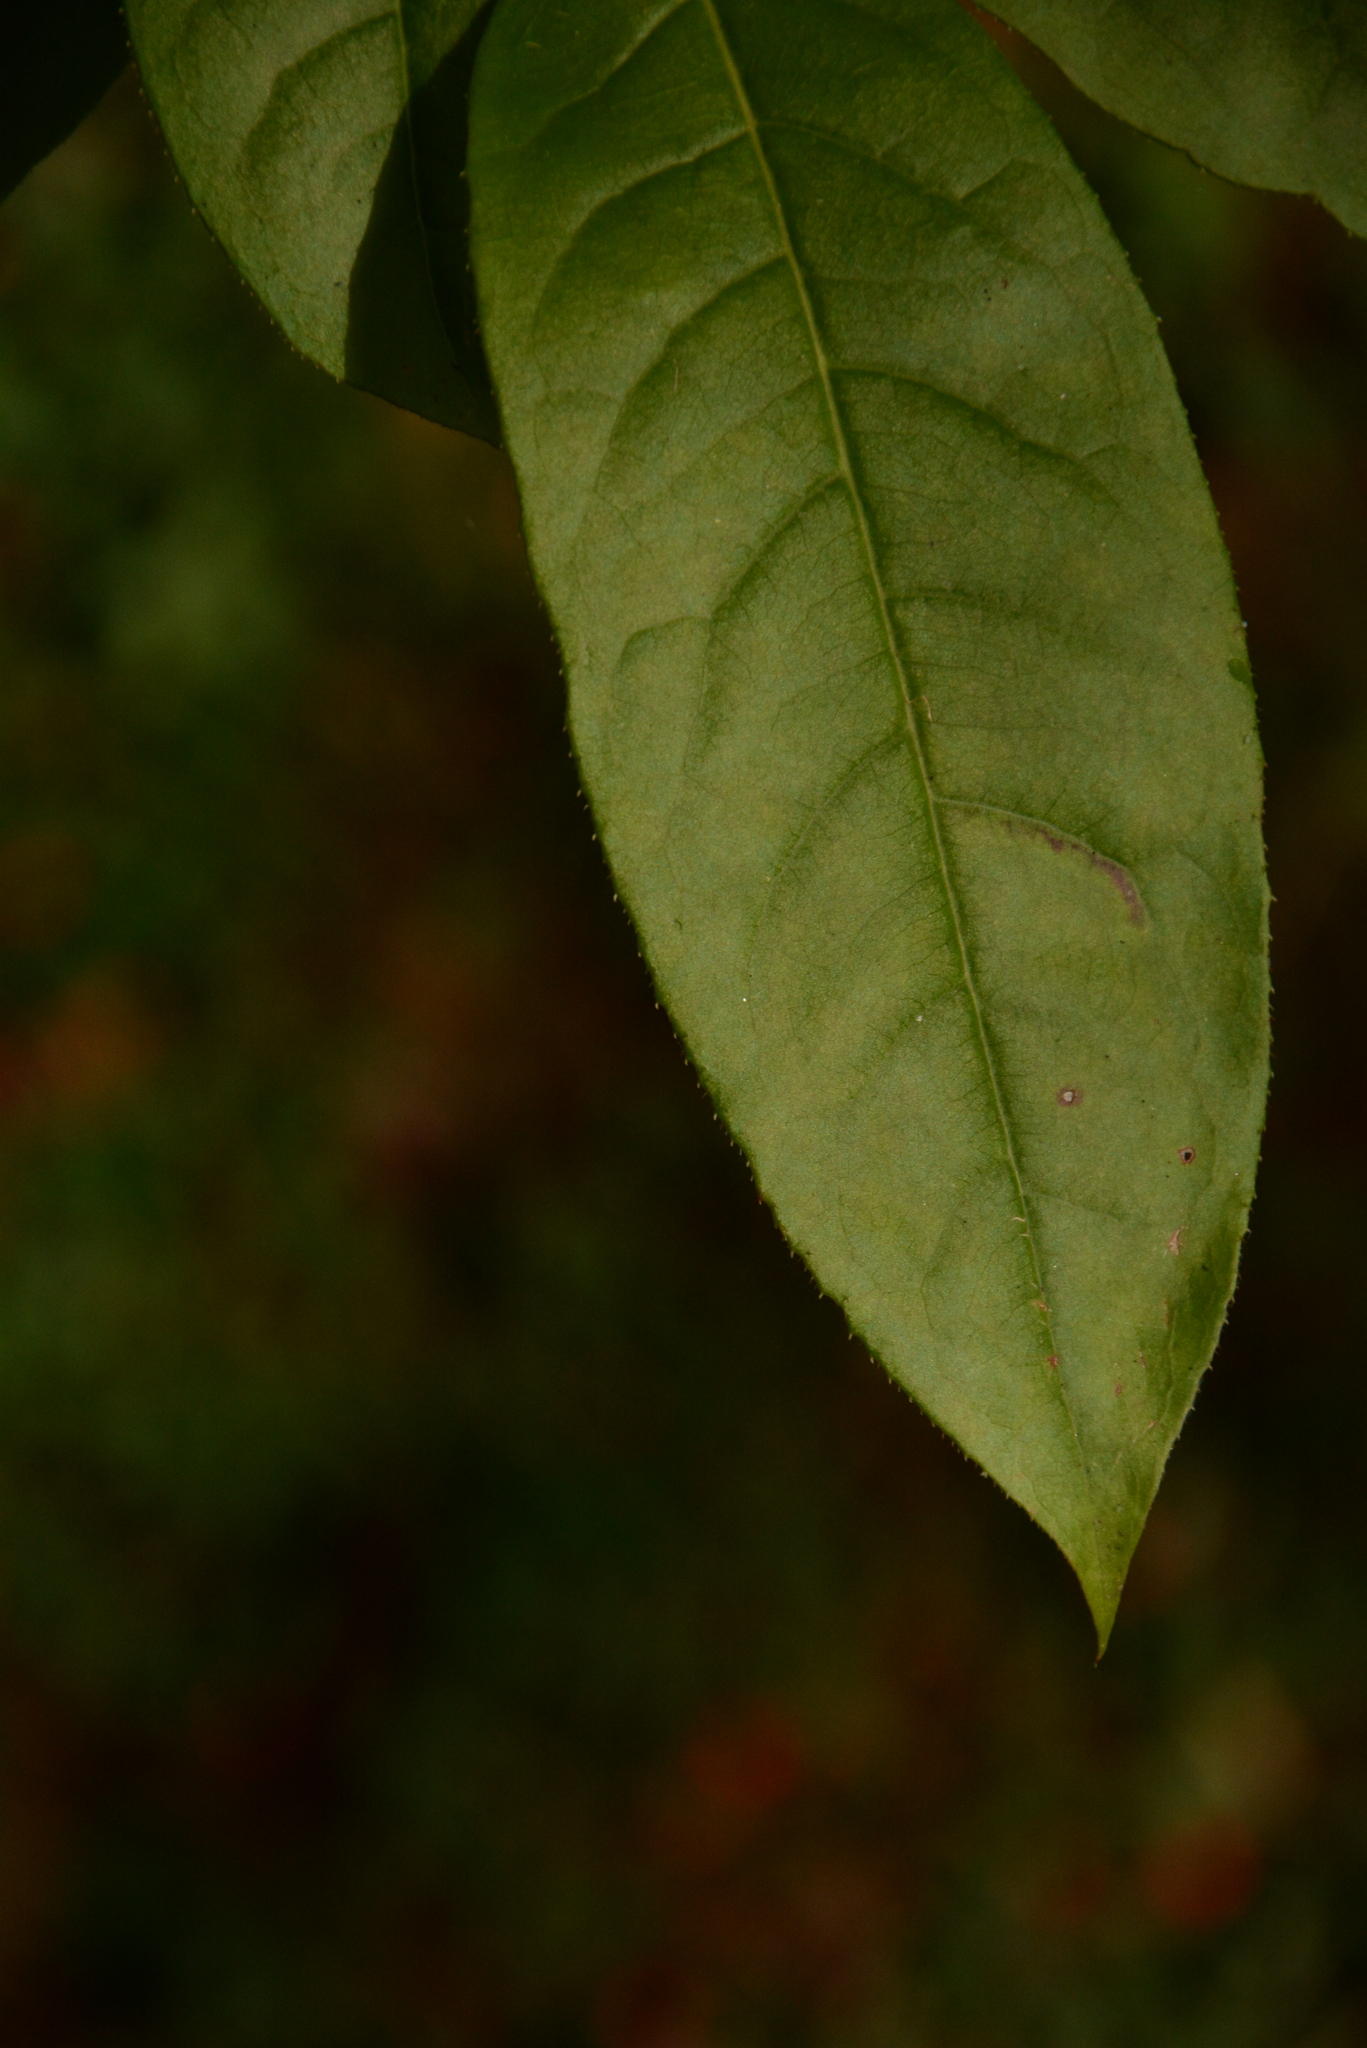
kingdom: Plantae
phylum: Tracheophyta
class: Magnoliopsida
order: Ericales
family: Ericaceae
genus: Oxydendrum
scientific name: Oxydendrum arboreum
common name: Sourwood
